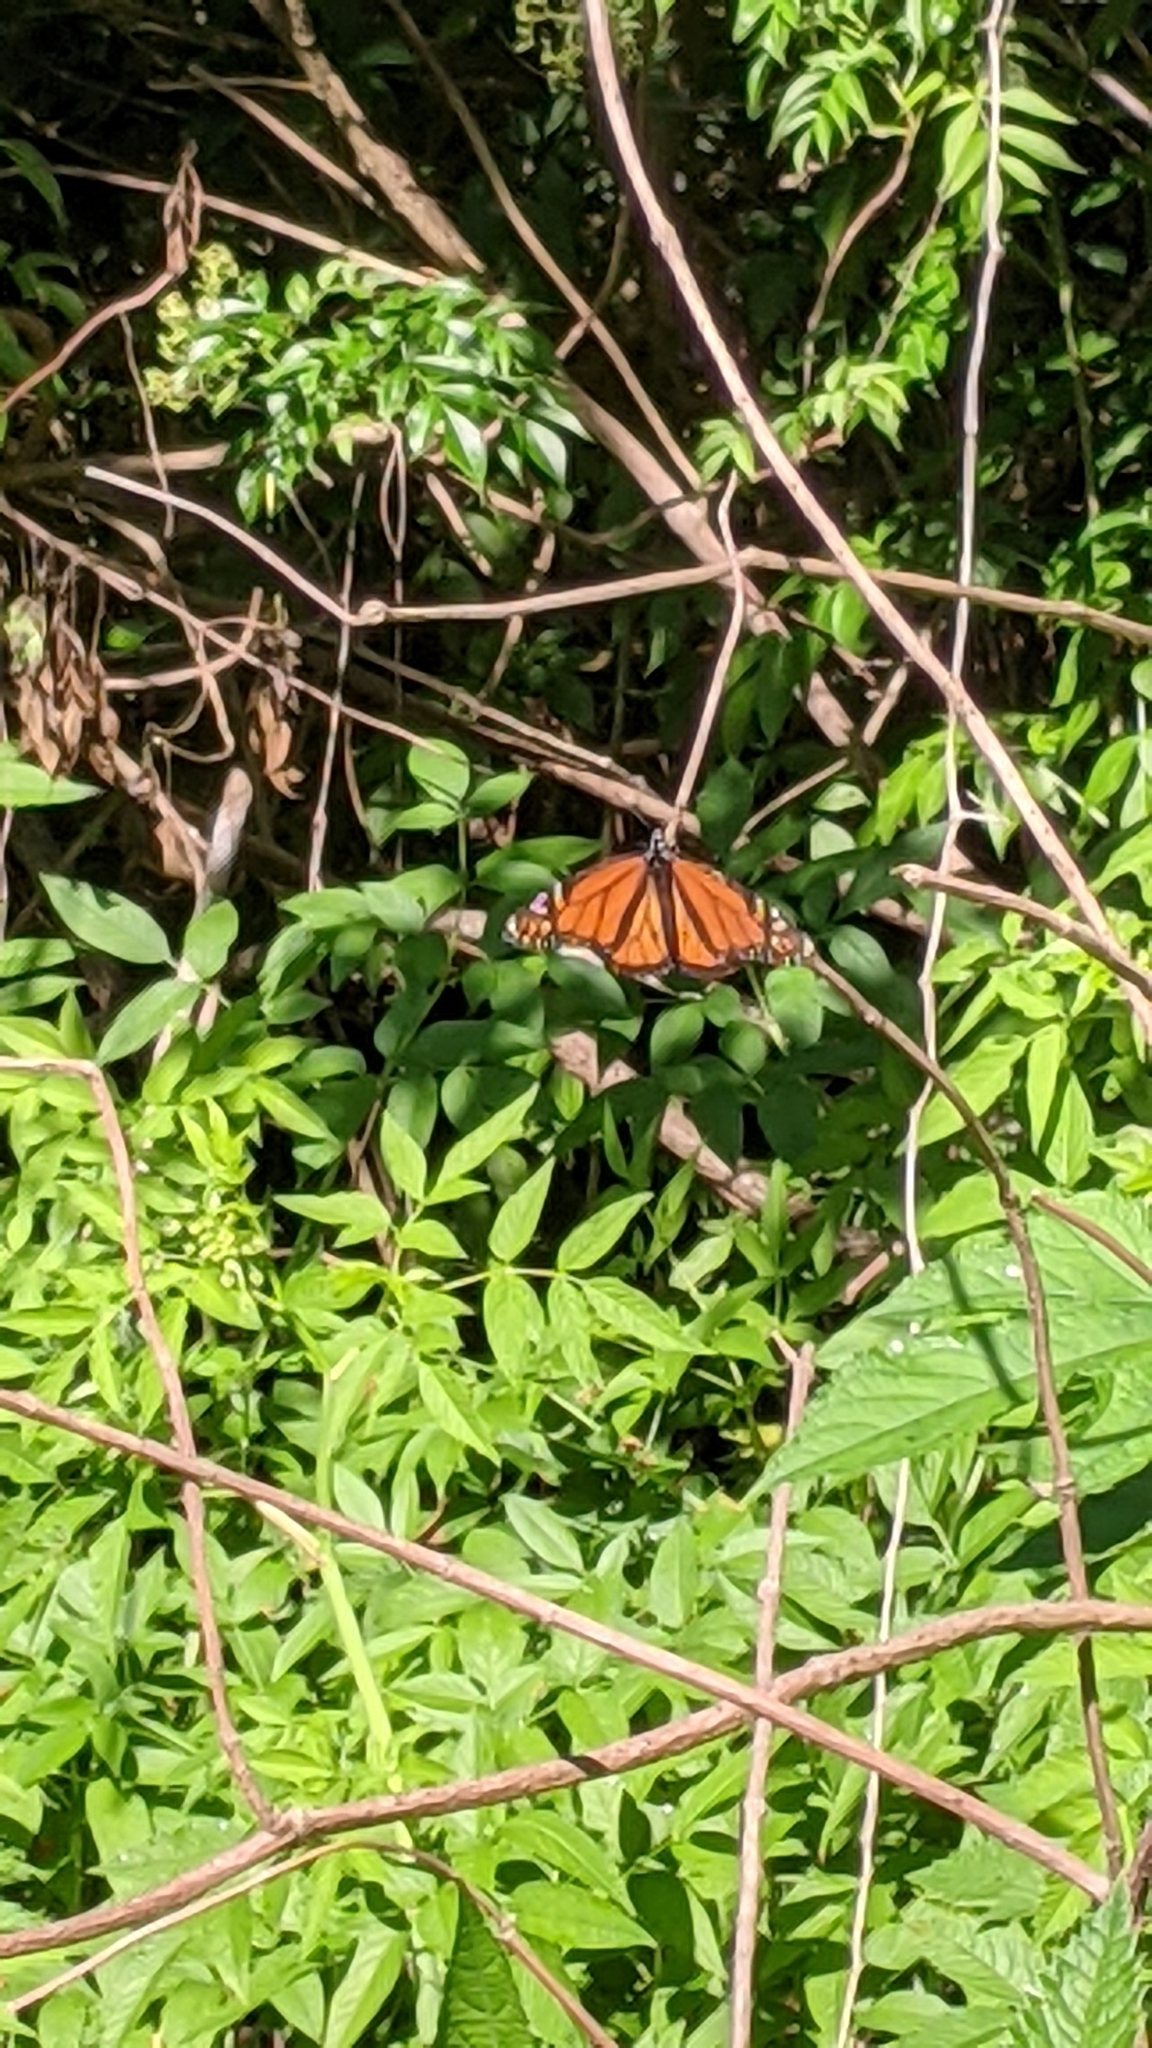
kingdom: Animalia
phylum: Arthropoda
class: Insecta
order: Lepidoptera
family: Nymphalidae
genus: Danaus
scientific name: Danaus plexippus
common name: Monarch
